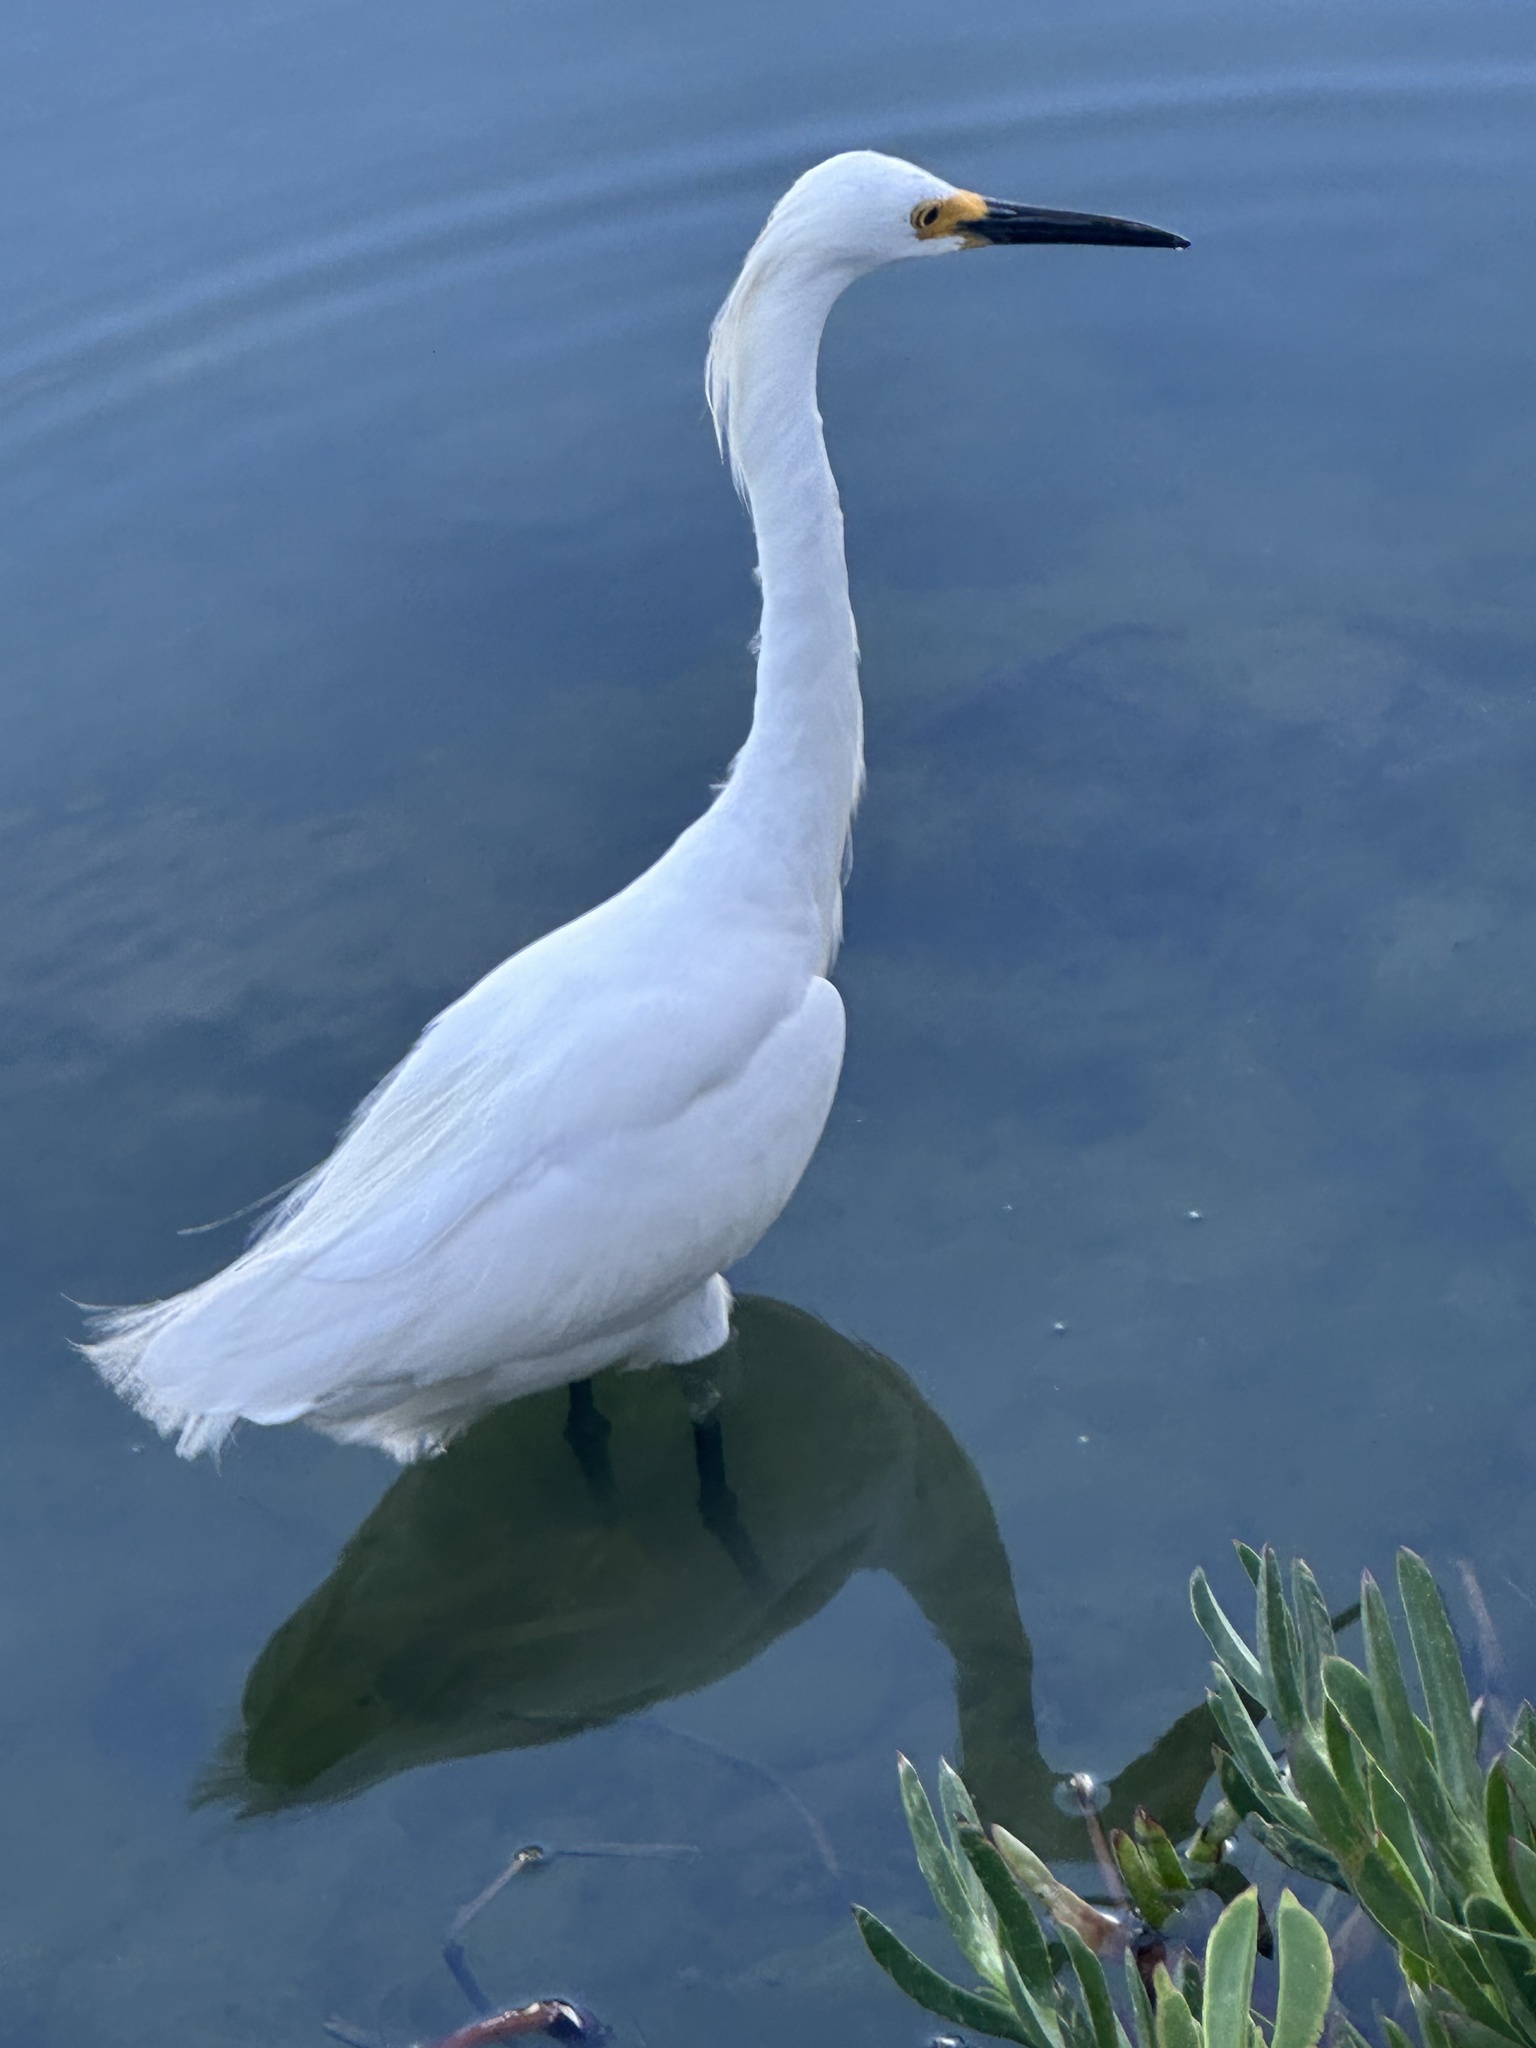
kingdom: Animalia
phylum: Chordata
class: Aves
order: Pelecaniformes
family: Ardeidae
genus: Egretta
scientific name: Egretta thula
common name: Snowy egret
